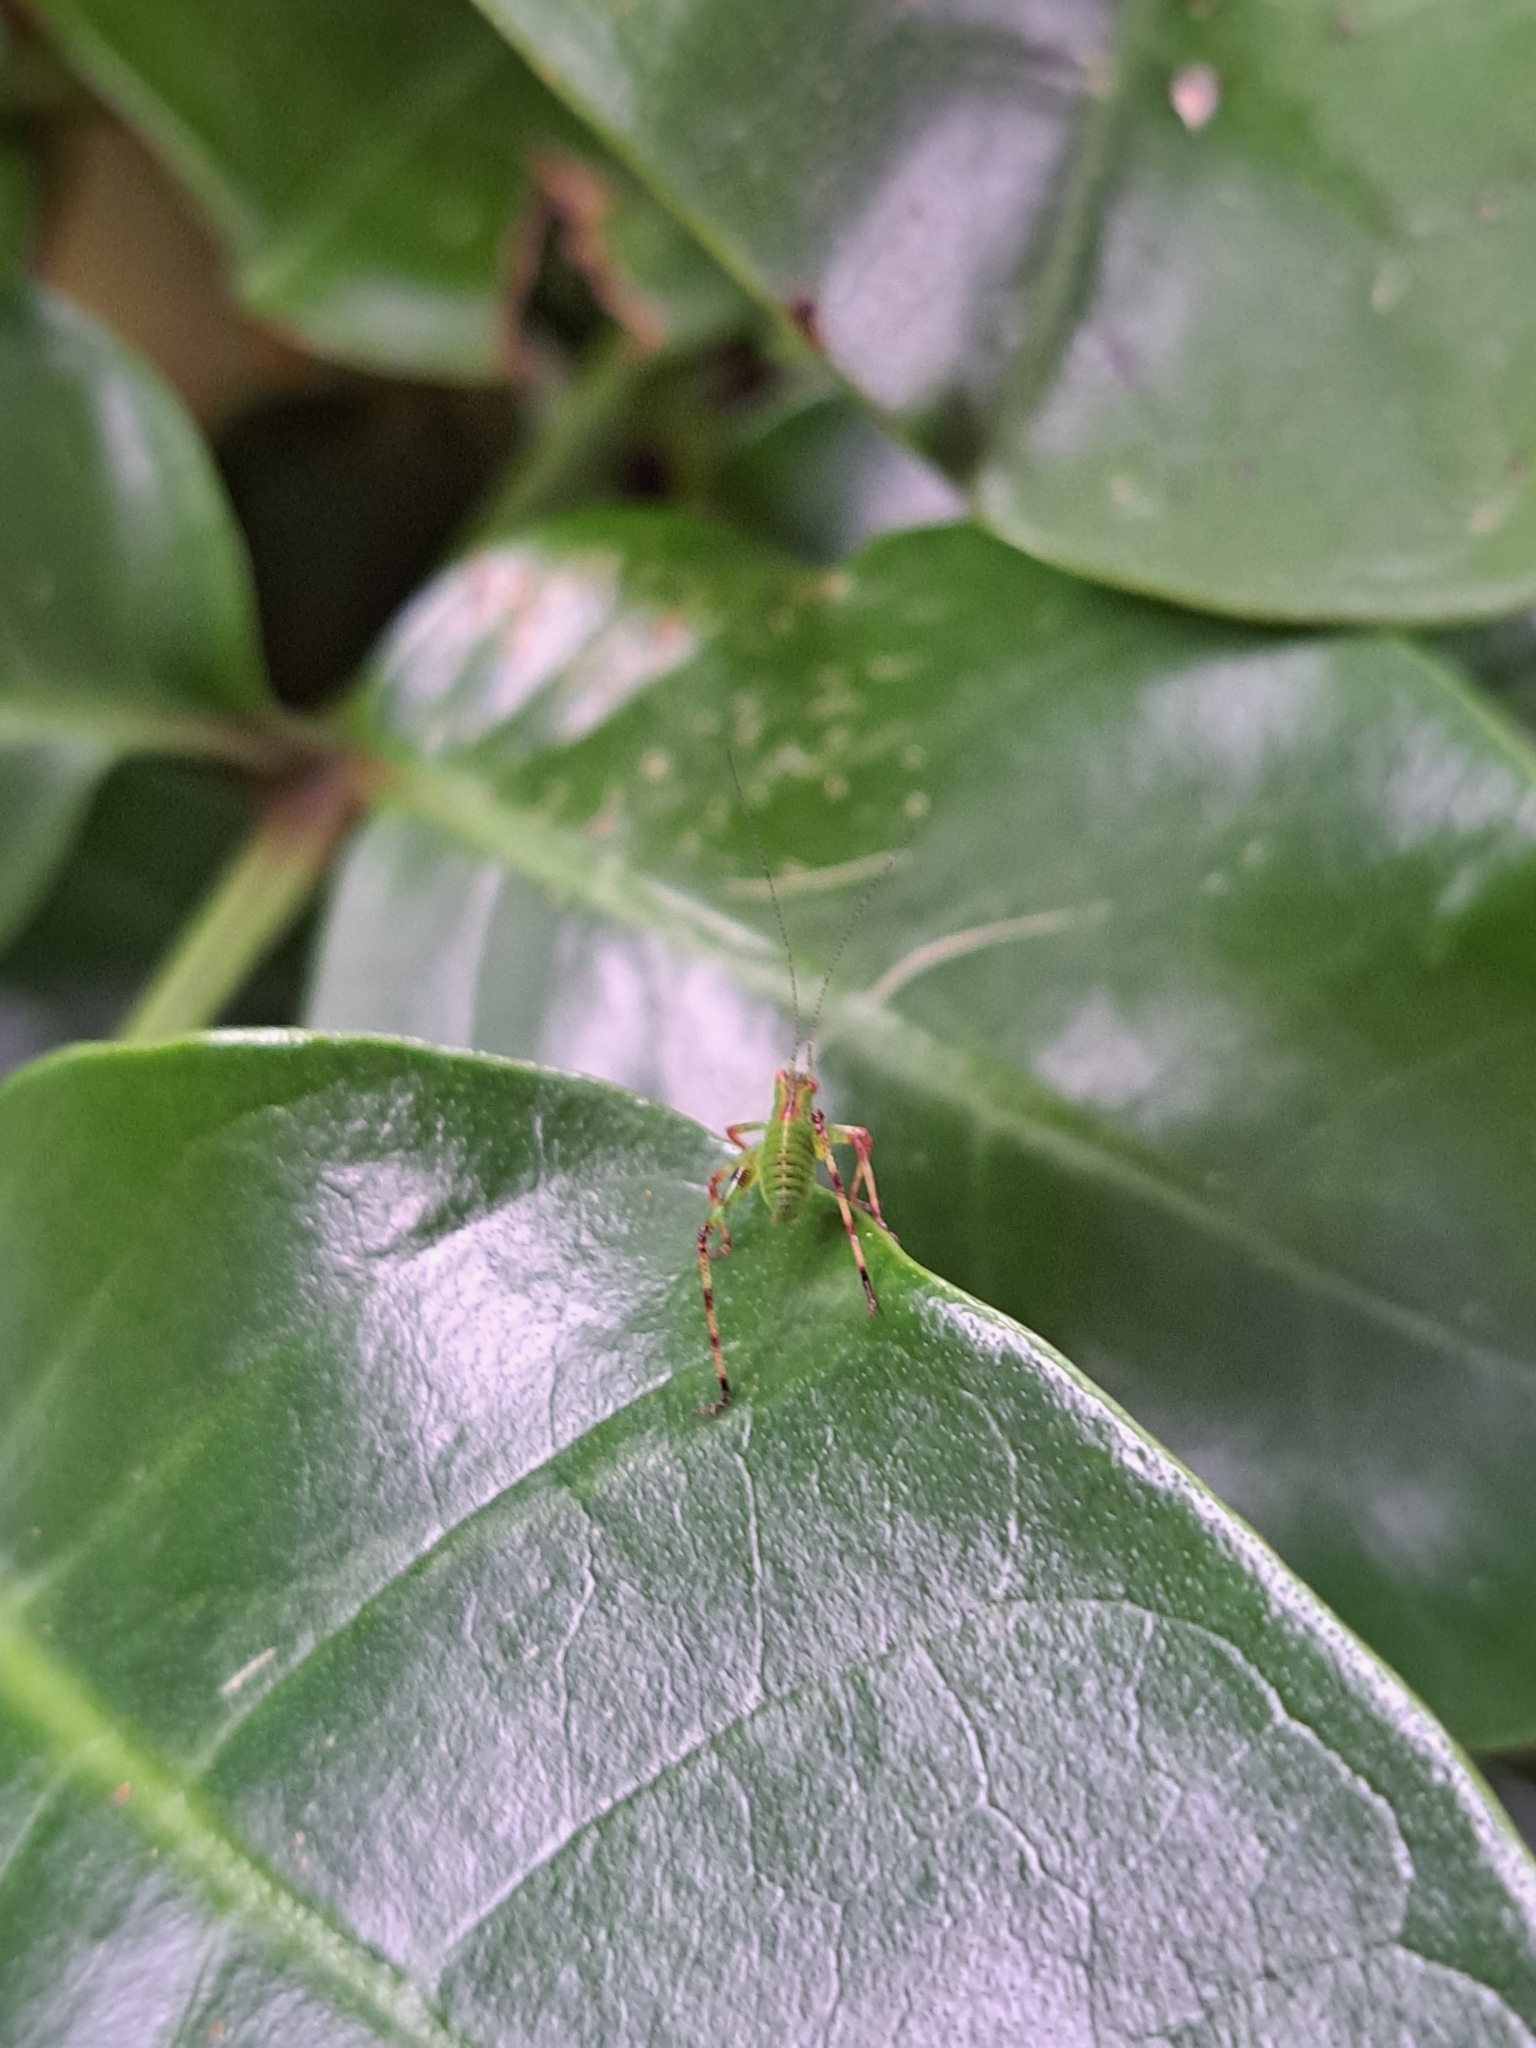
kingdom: Animalia
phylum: Arthropoda
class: Insecta
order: Orthoptera
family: Tettigoniidae
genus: Caedicia
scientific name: Caedicia simplex
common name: Common garden katydid
